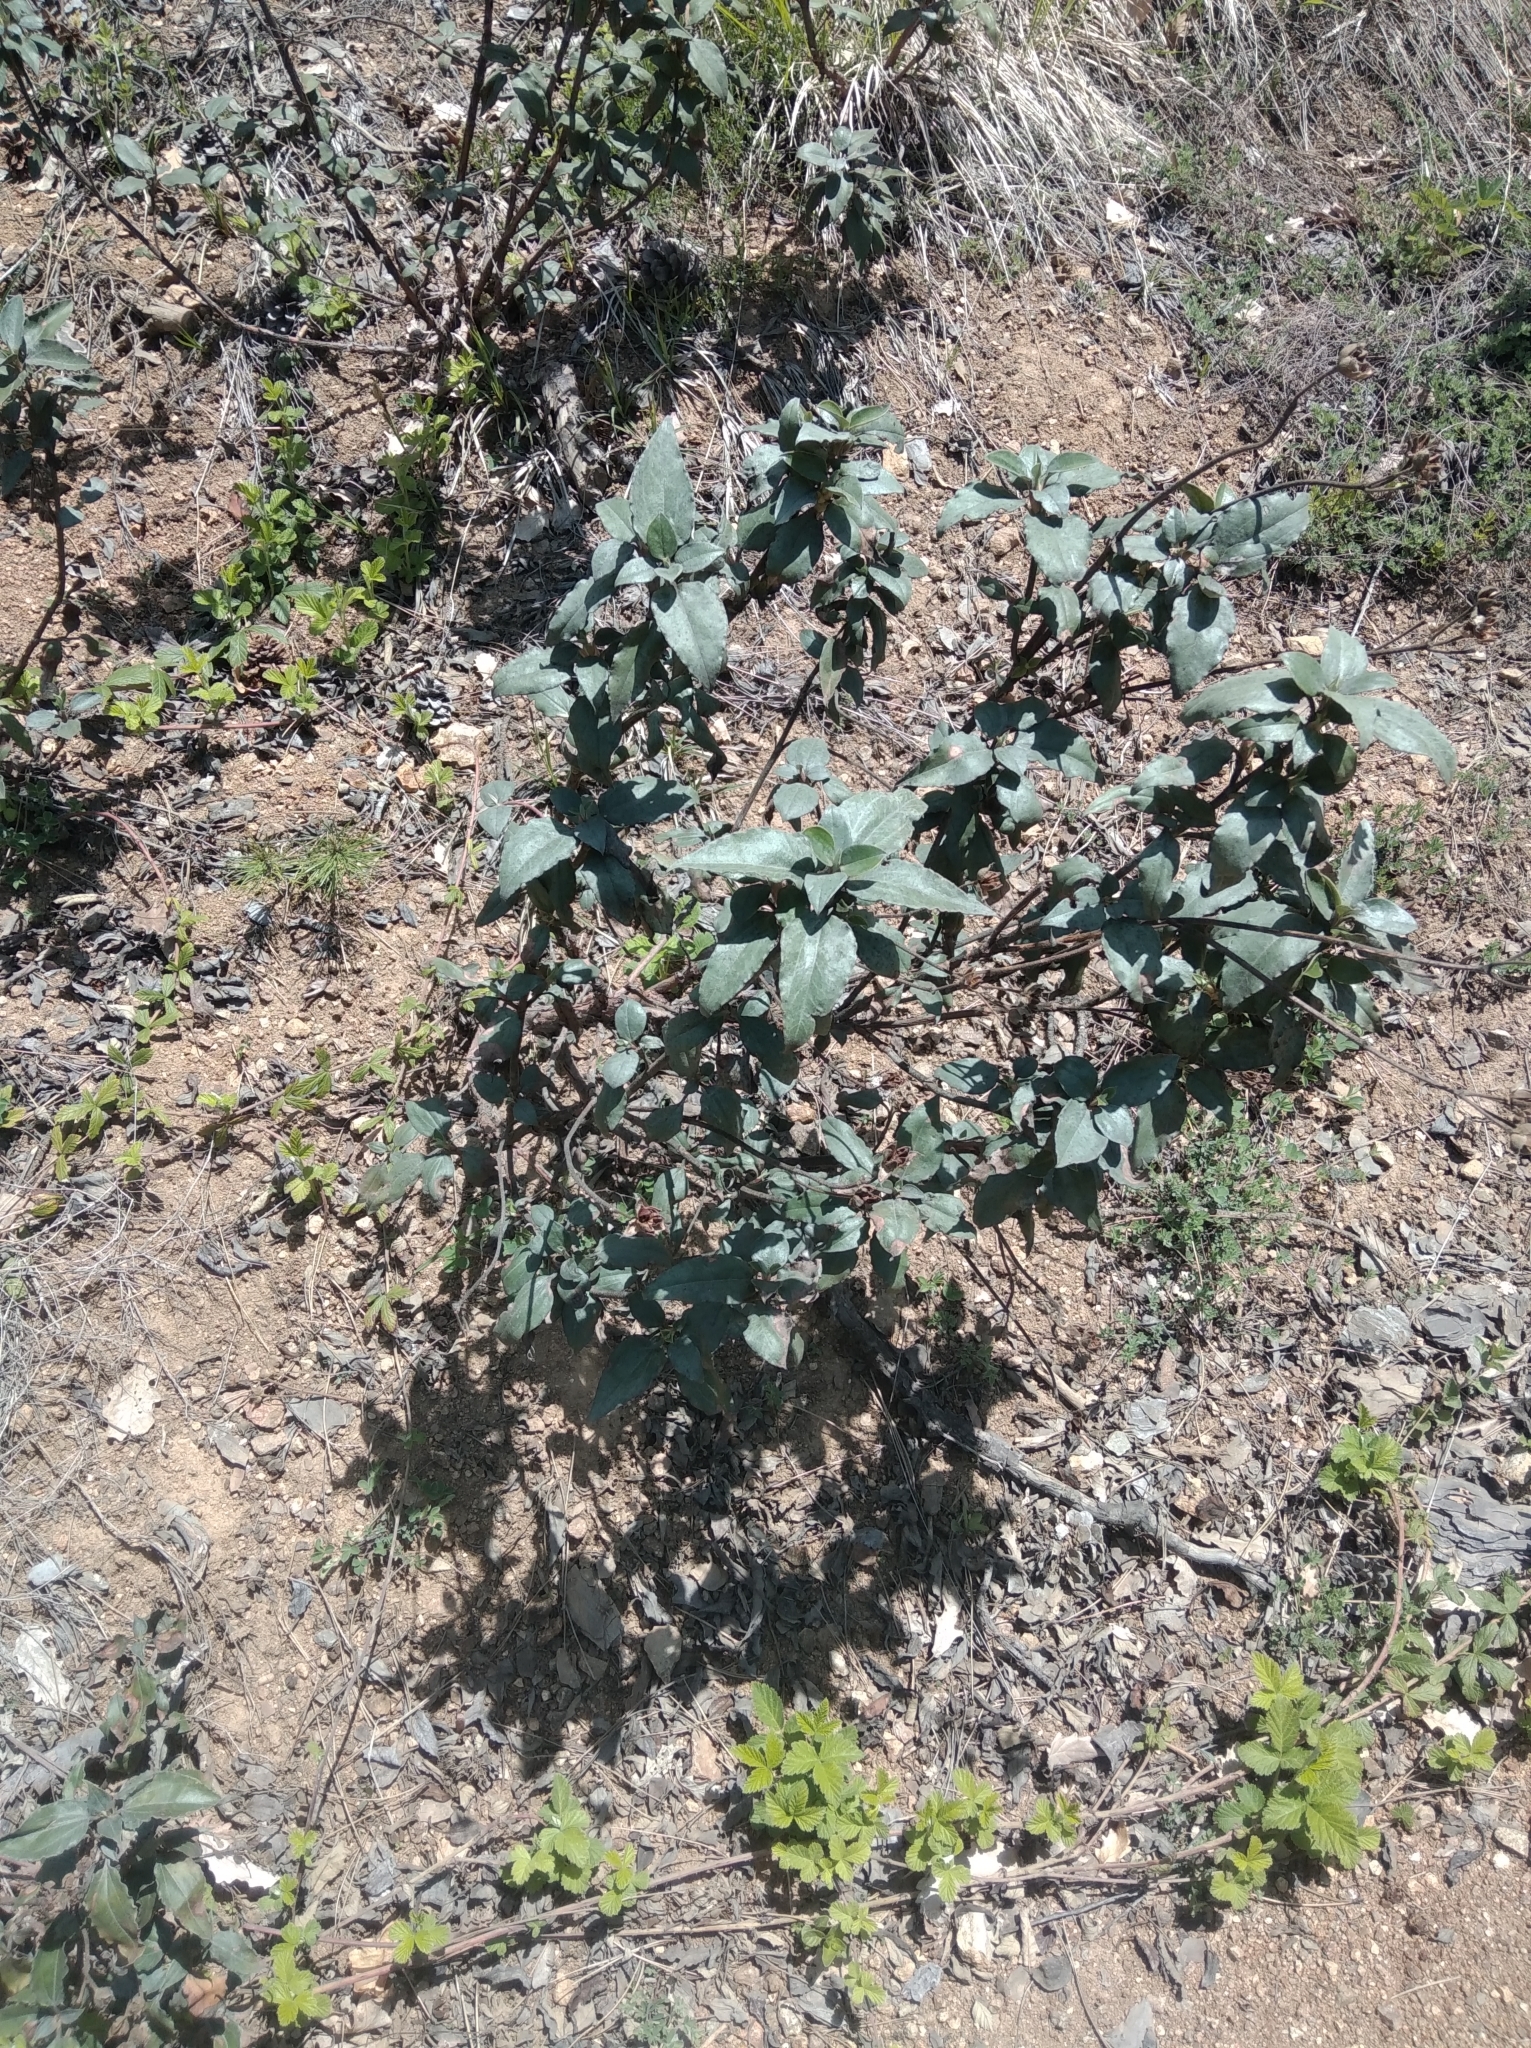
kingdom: Plantae
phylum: Tracheophyta
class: Magnoliopsida
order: Malvales
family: Cistaceae
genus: Cistus
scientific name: Cistus laurifolius
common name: Laurel-leaved cistus
